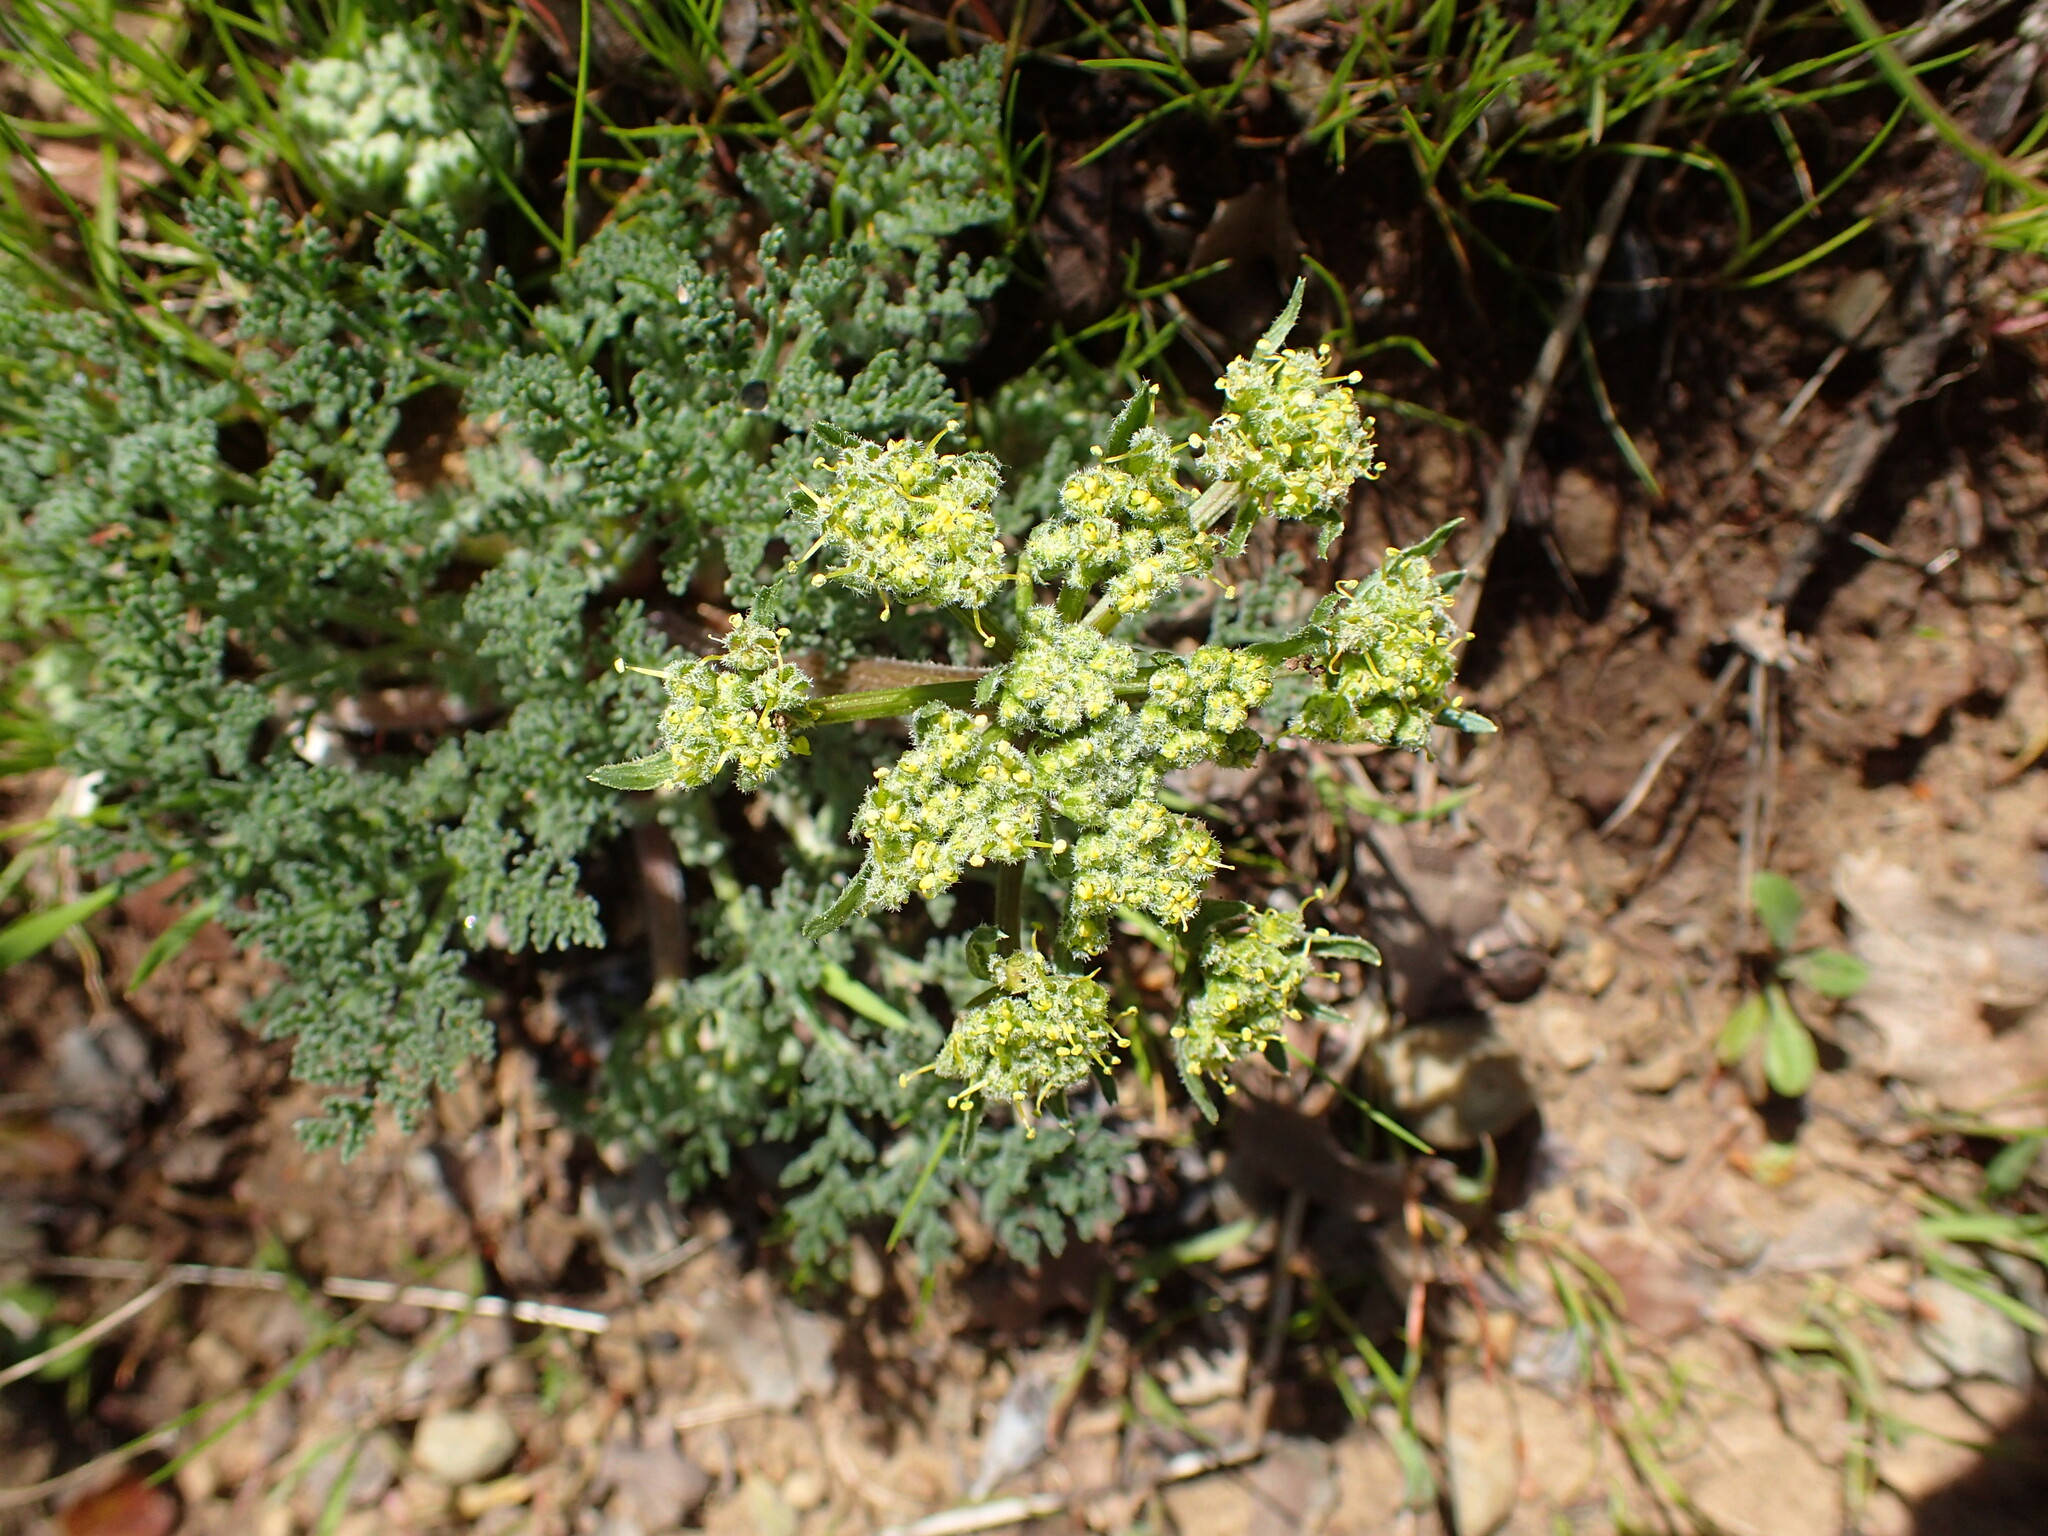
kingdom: Plantae
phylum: Tracheophyta
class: Magnoliopsida
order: Apiales
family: Apiaceae
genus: Lomatium
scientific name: Lomatium dasycarpum
